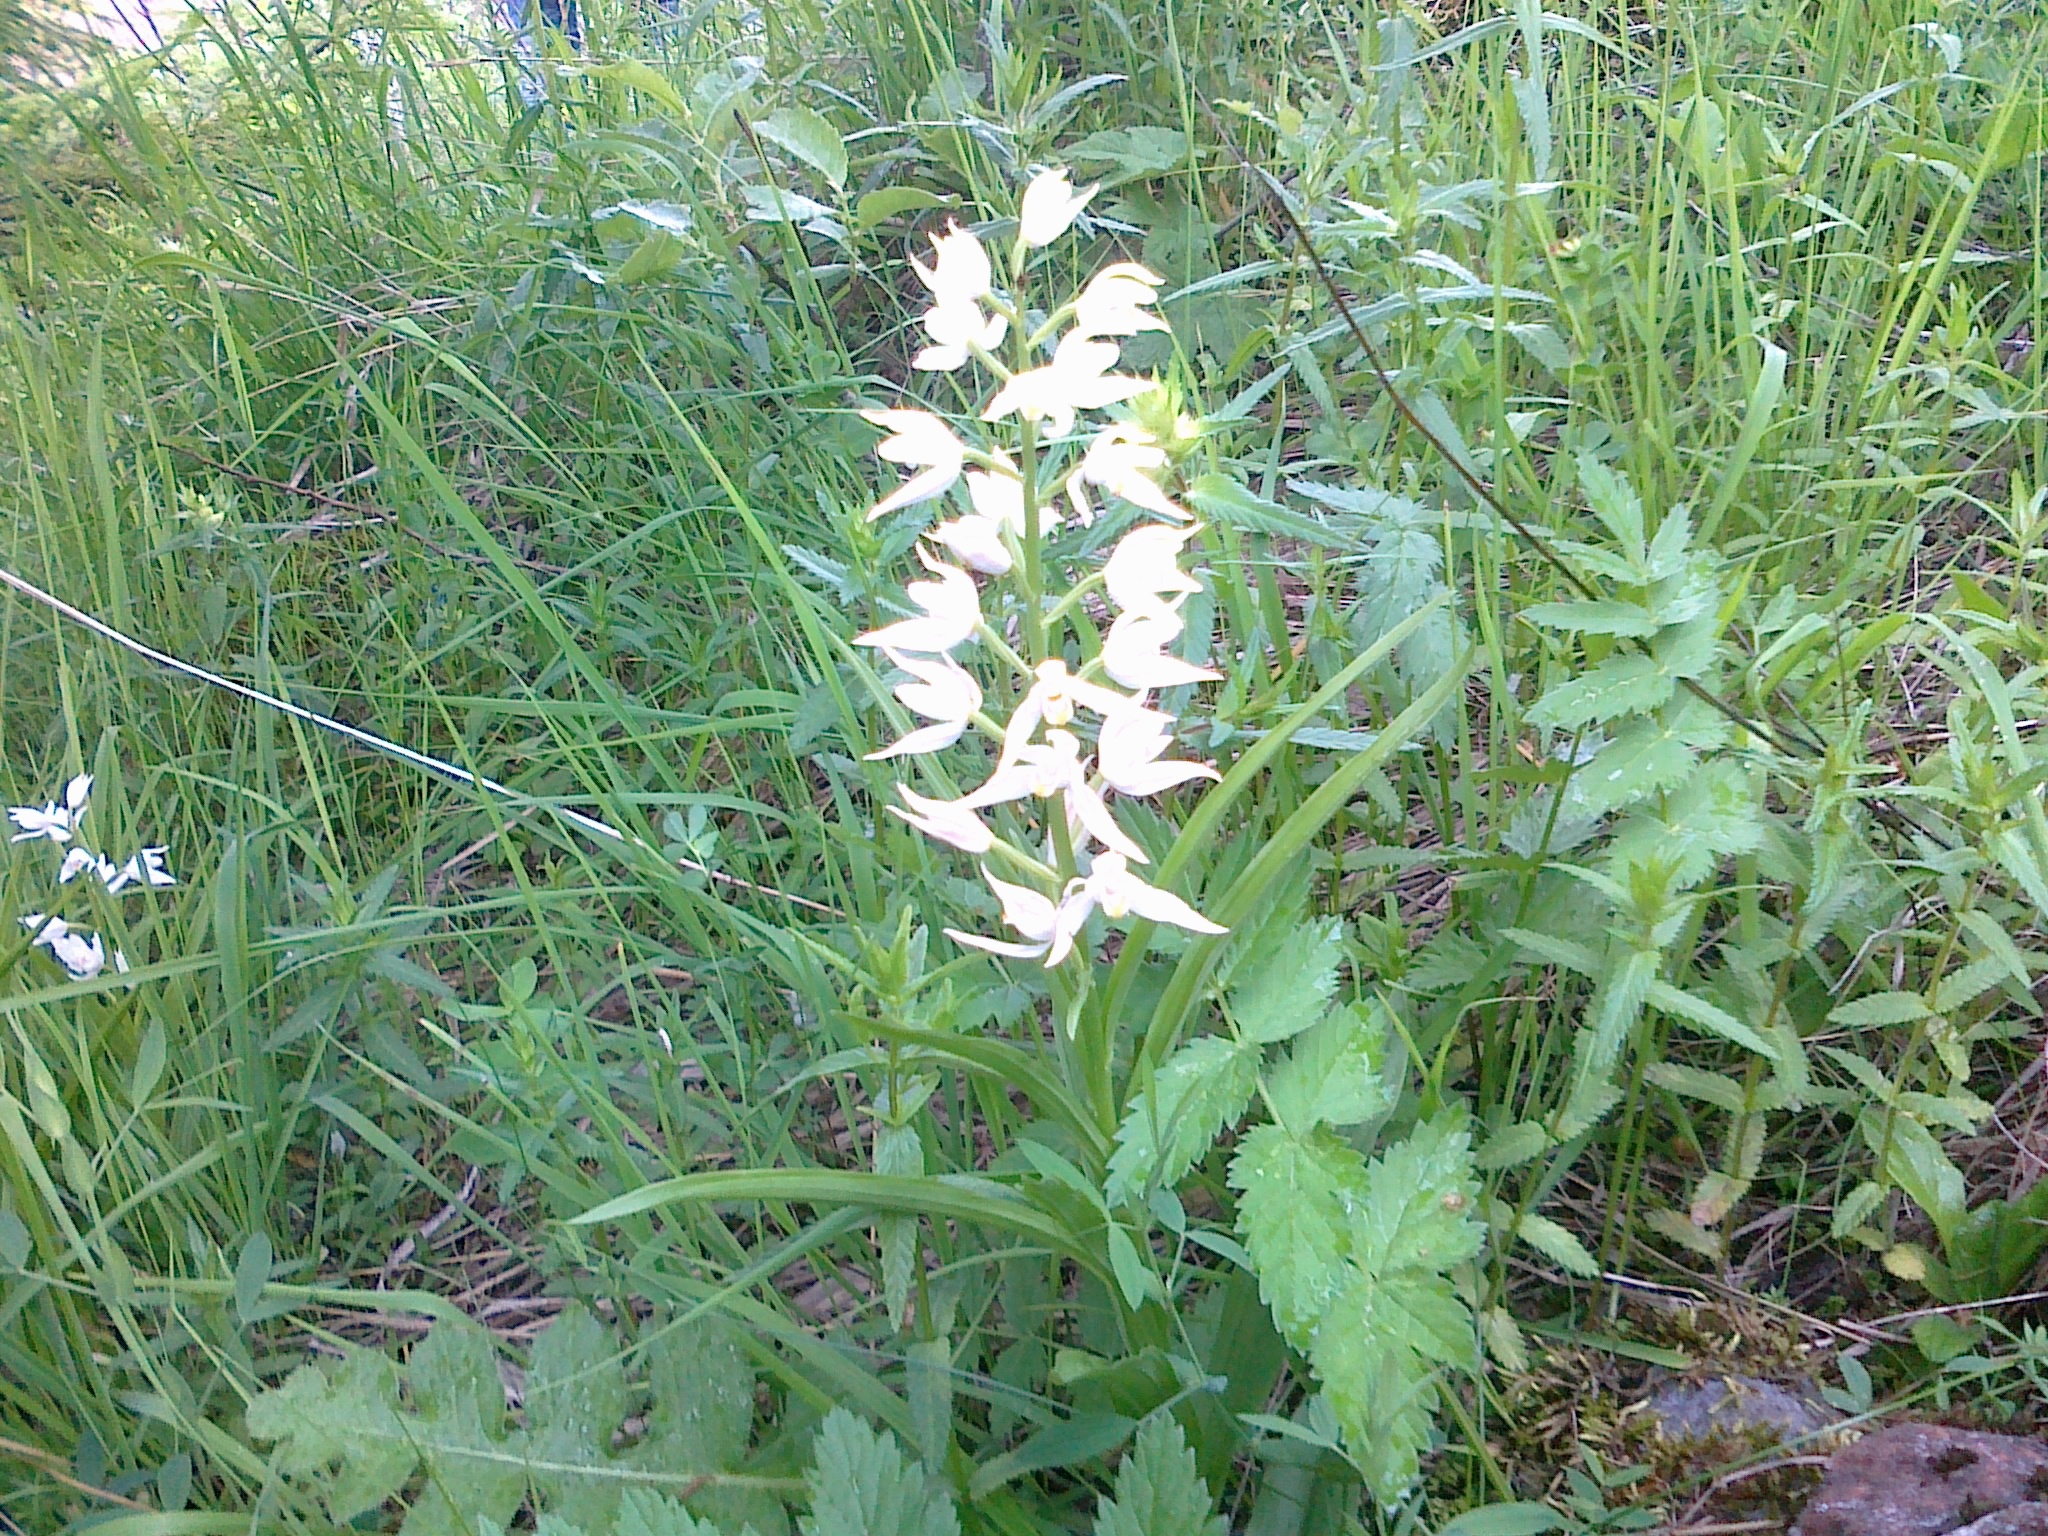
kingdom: Plantae
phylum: Tracheophyta
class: Liliopsida
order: Asparagales
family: Orchidaceae
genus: Cephalanthera
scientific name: Cephalanthera longifolia
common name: Narrow-leaved helleborine
